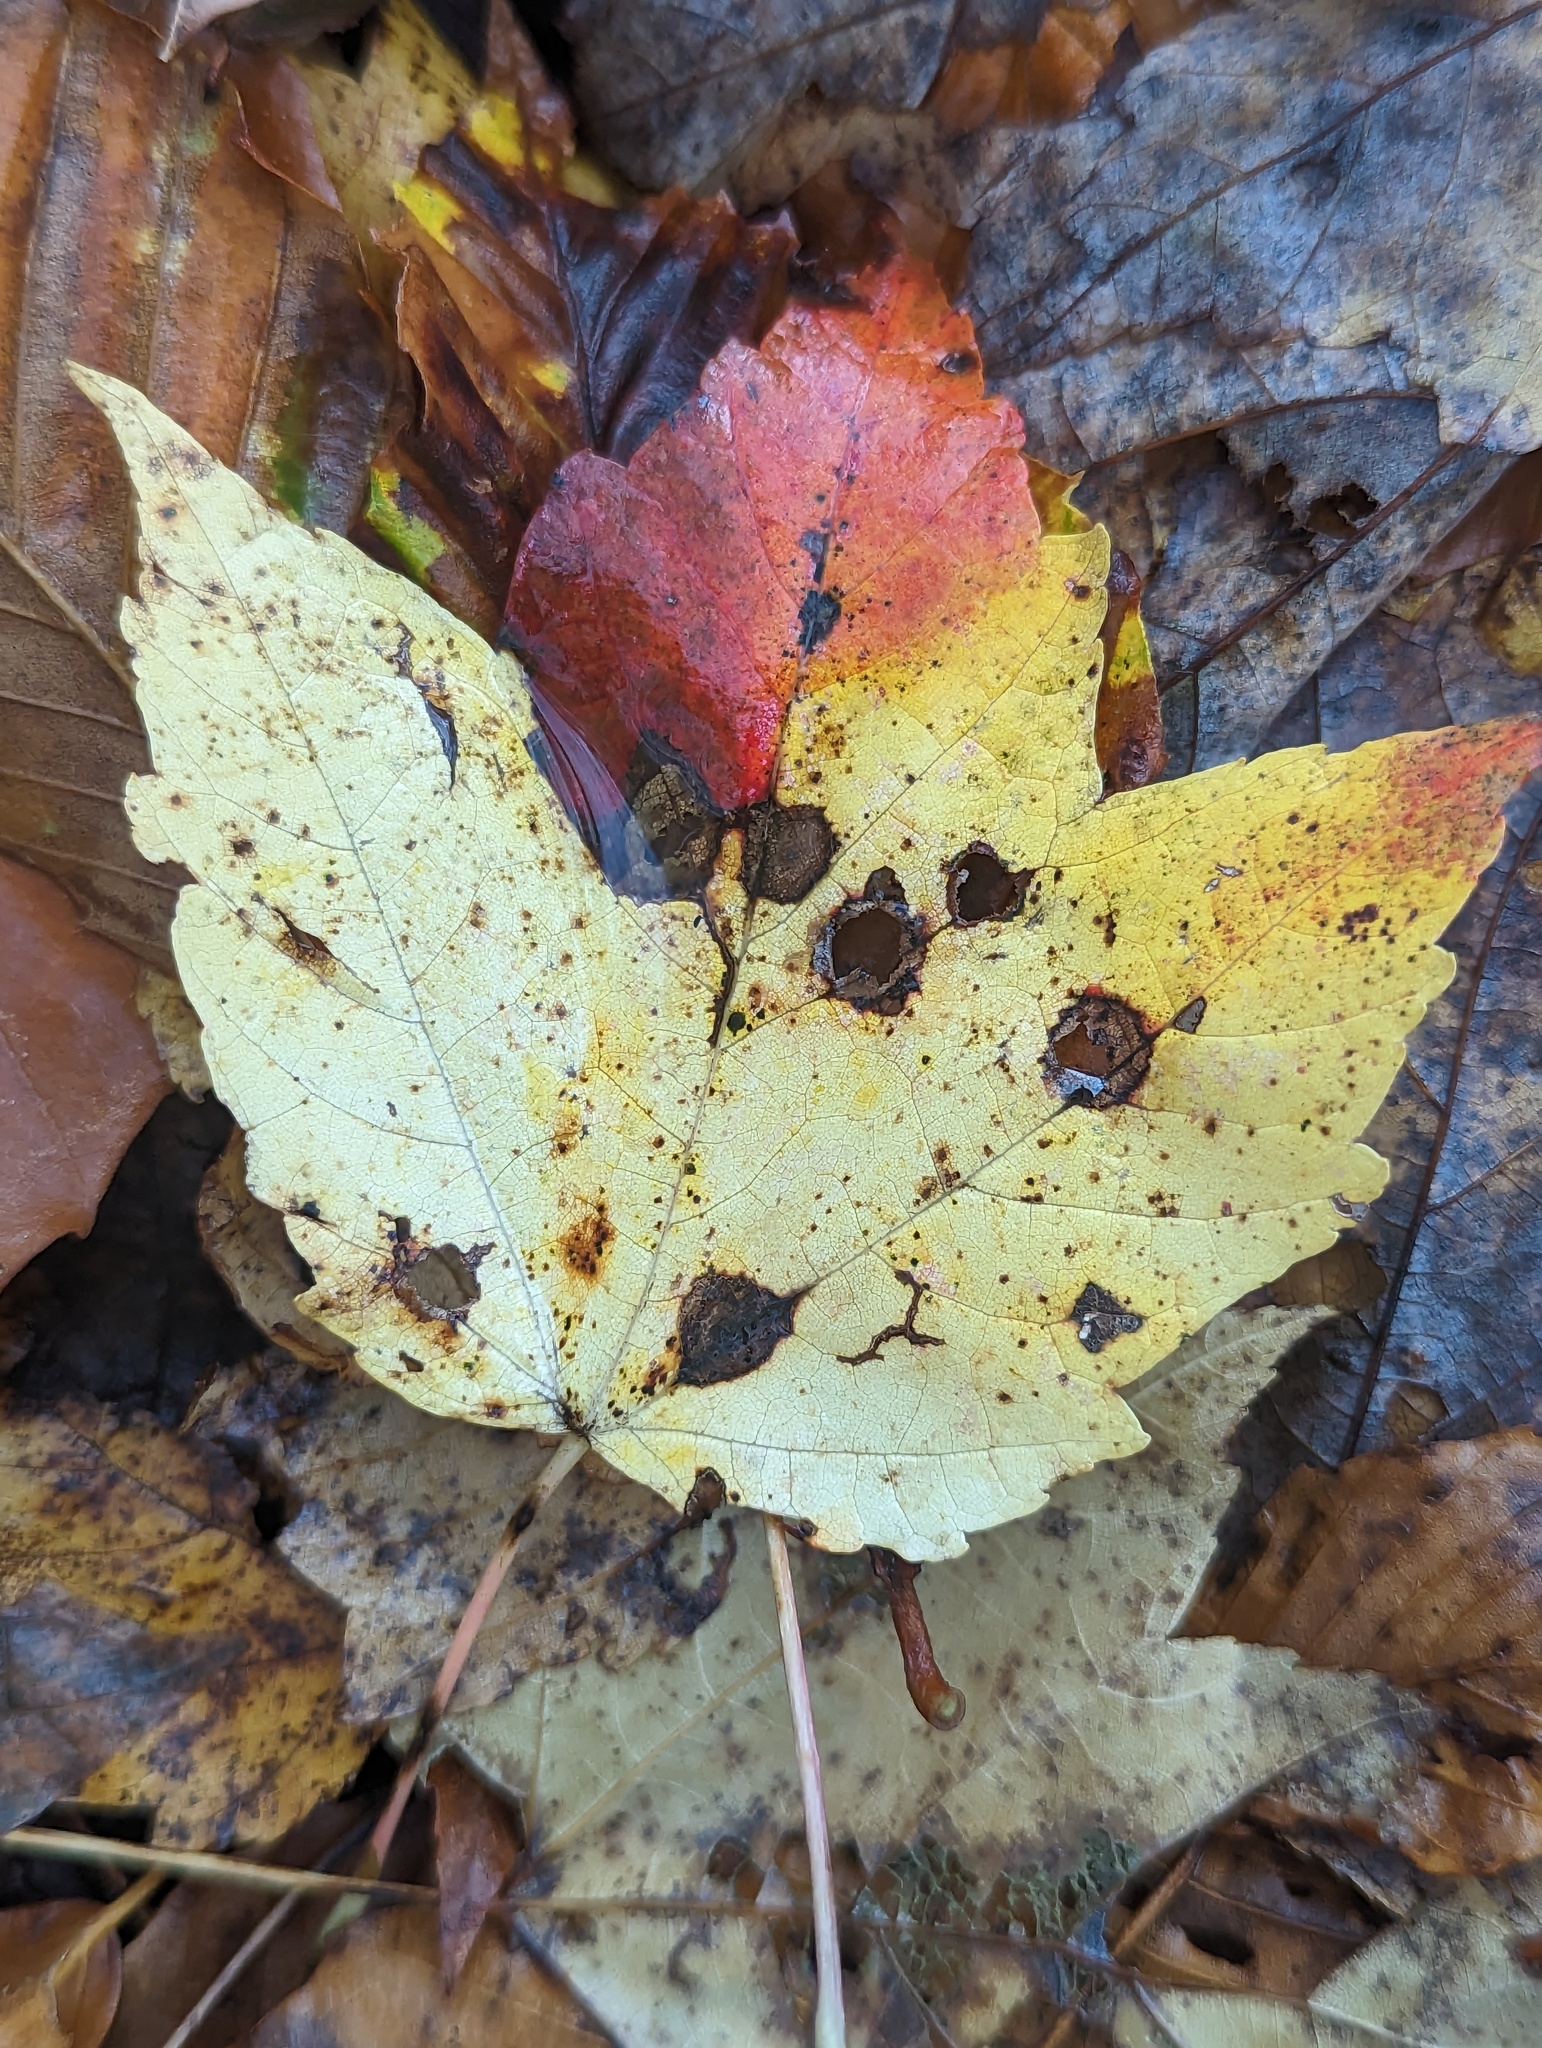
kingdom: Plantae
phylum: Tracheophyta
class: Magnoliopsida
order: Sapindales
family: Sapindaceae
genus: Acer
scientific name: Acer rubrum
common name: Red maple
